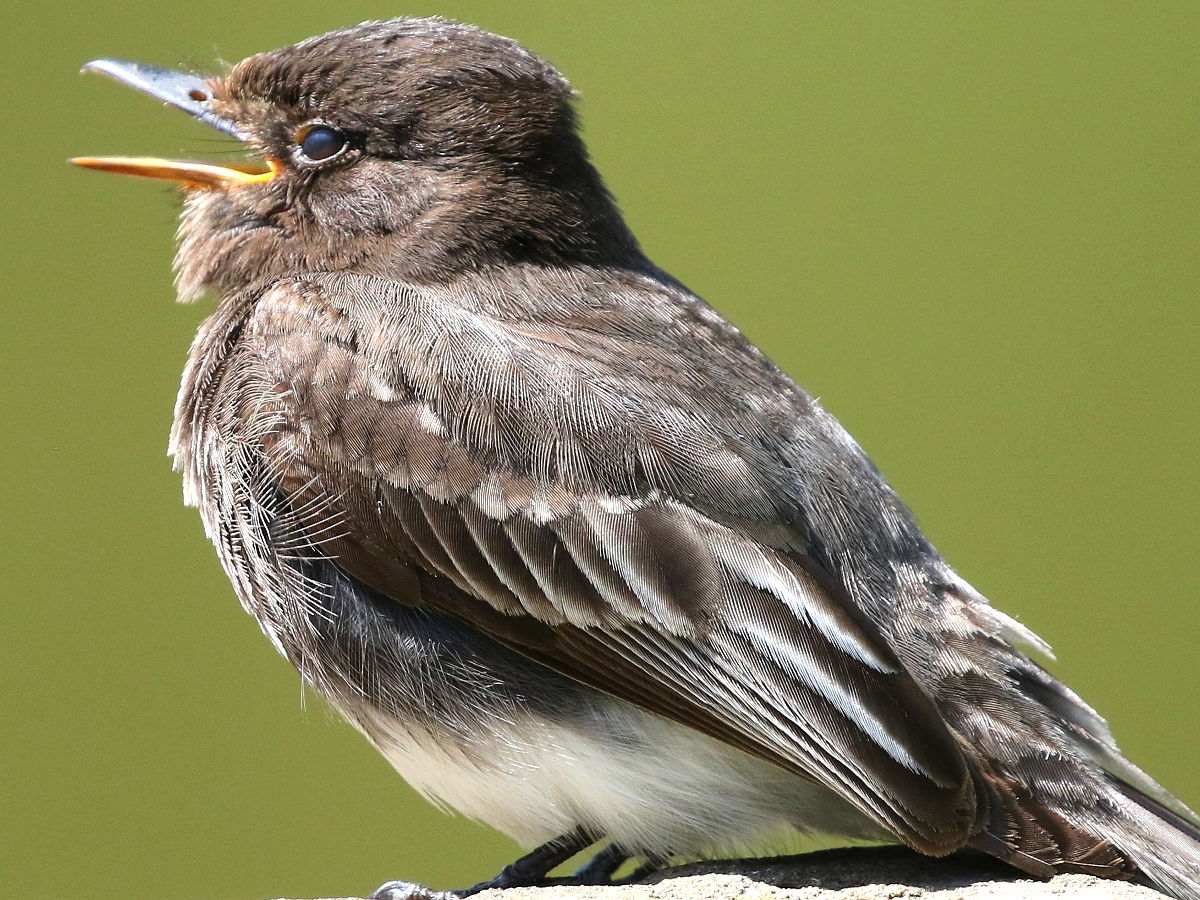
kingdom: Animalia
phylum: Chordata
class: Aves
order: Passeriformes
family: Tyrannidae
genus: Sayornis
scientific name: Sayornis nigricans
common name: Black phoebe
